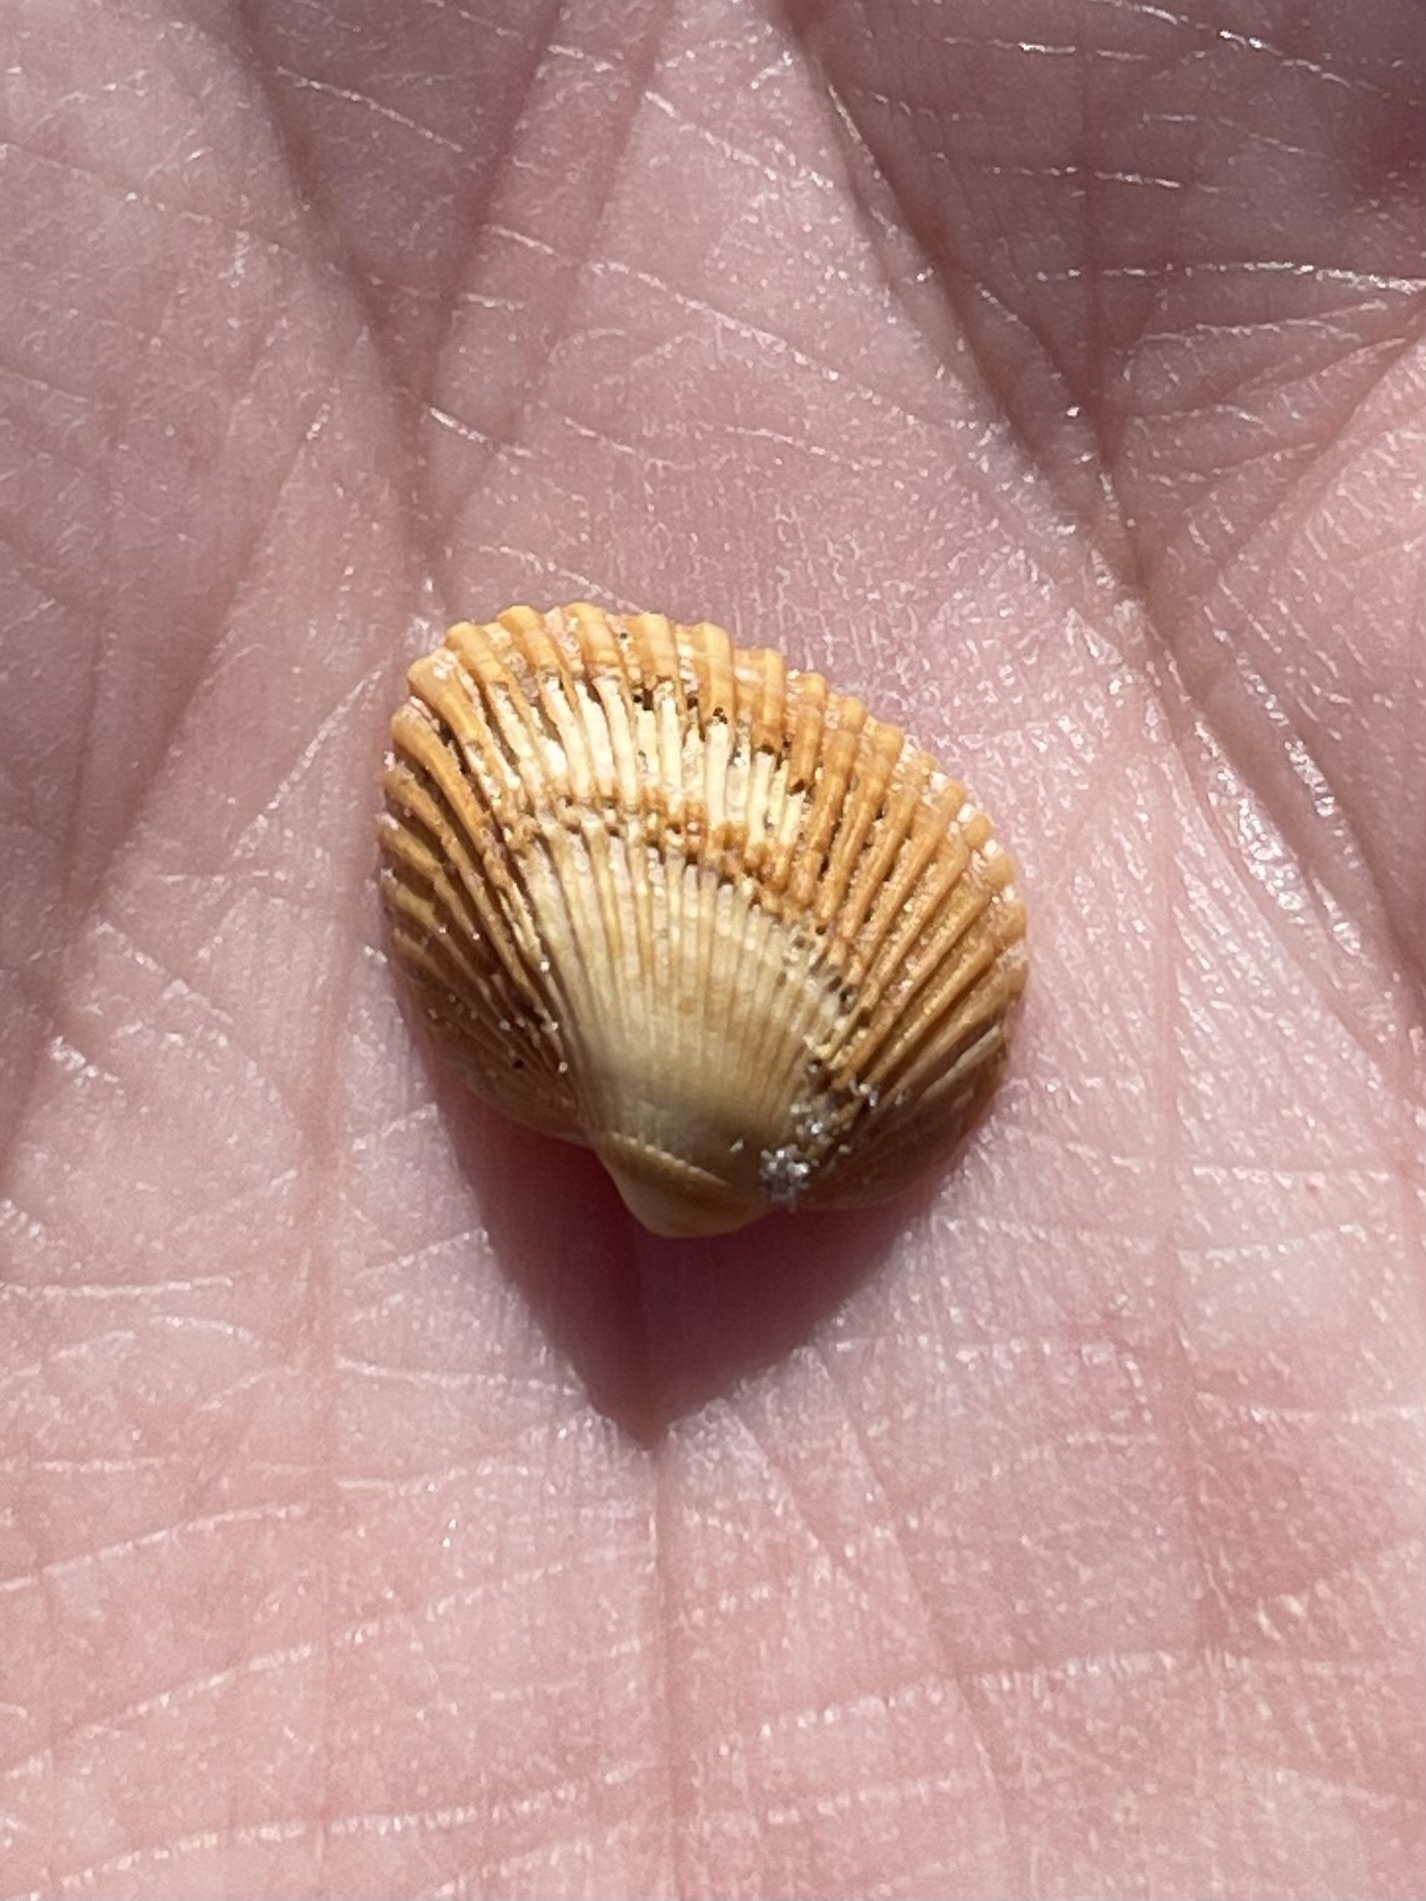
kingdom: Animalia
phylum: Mollusca
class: Bivalvia
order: Arcida
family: Noetiidae
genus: Noetia
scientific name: Noetia ponderosa
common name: Ponderous ark
